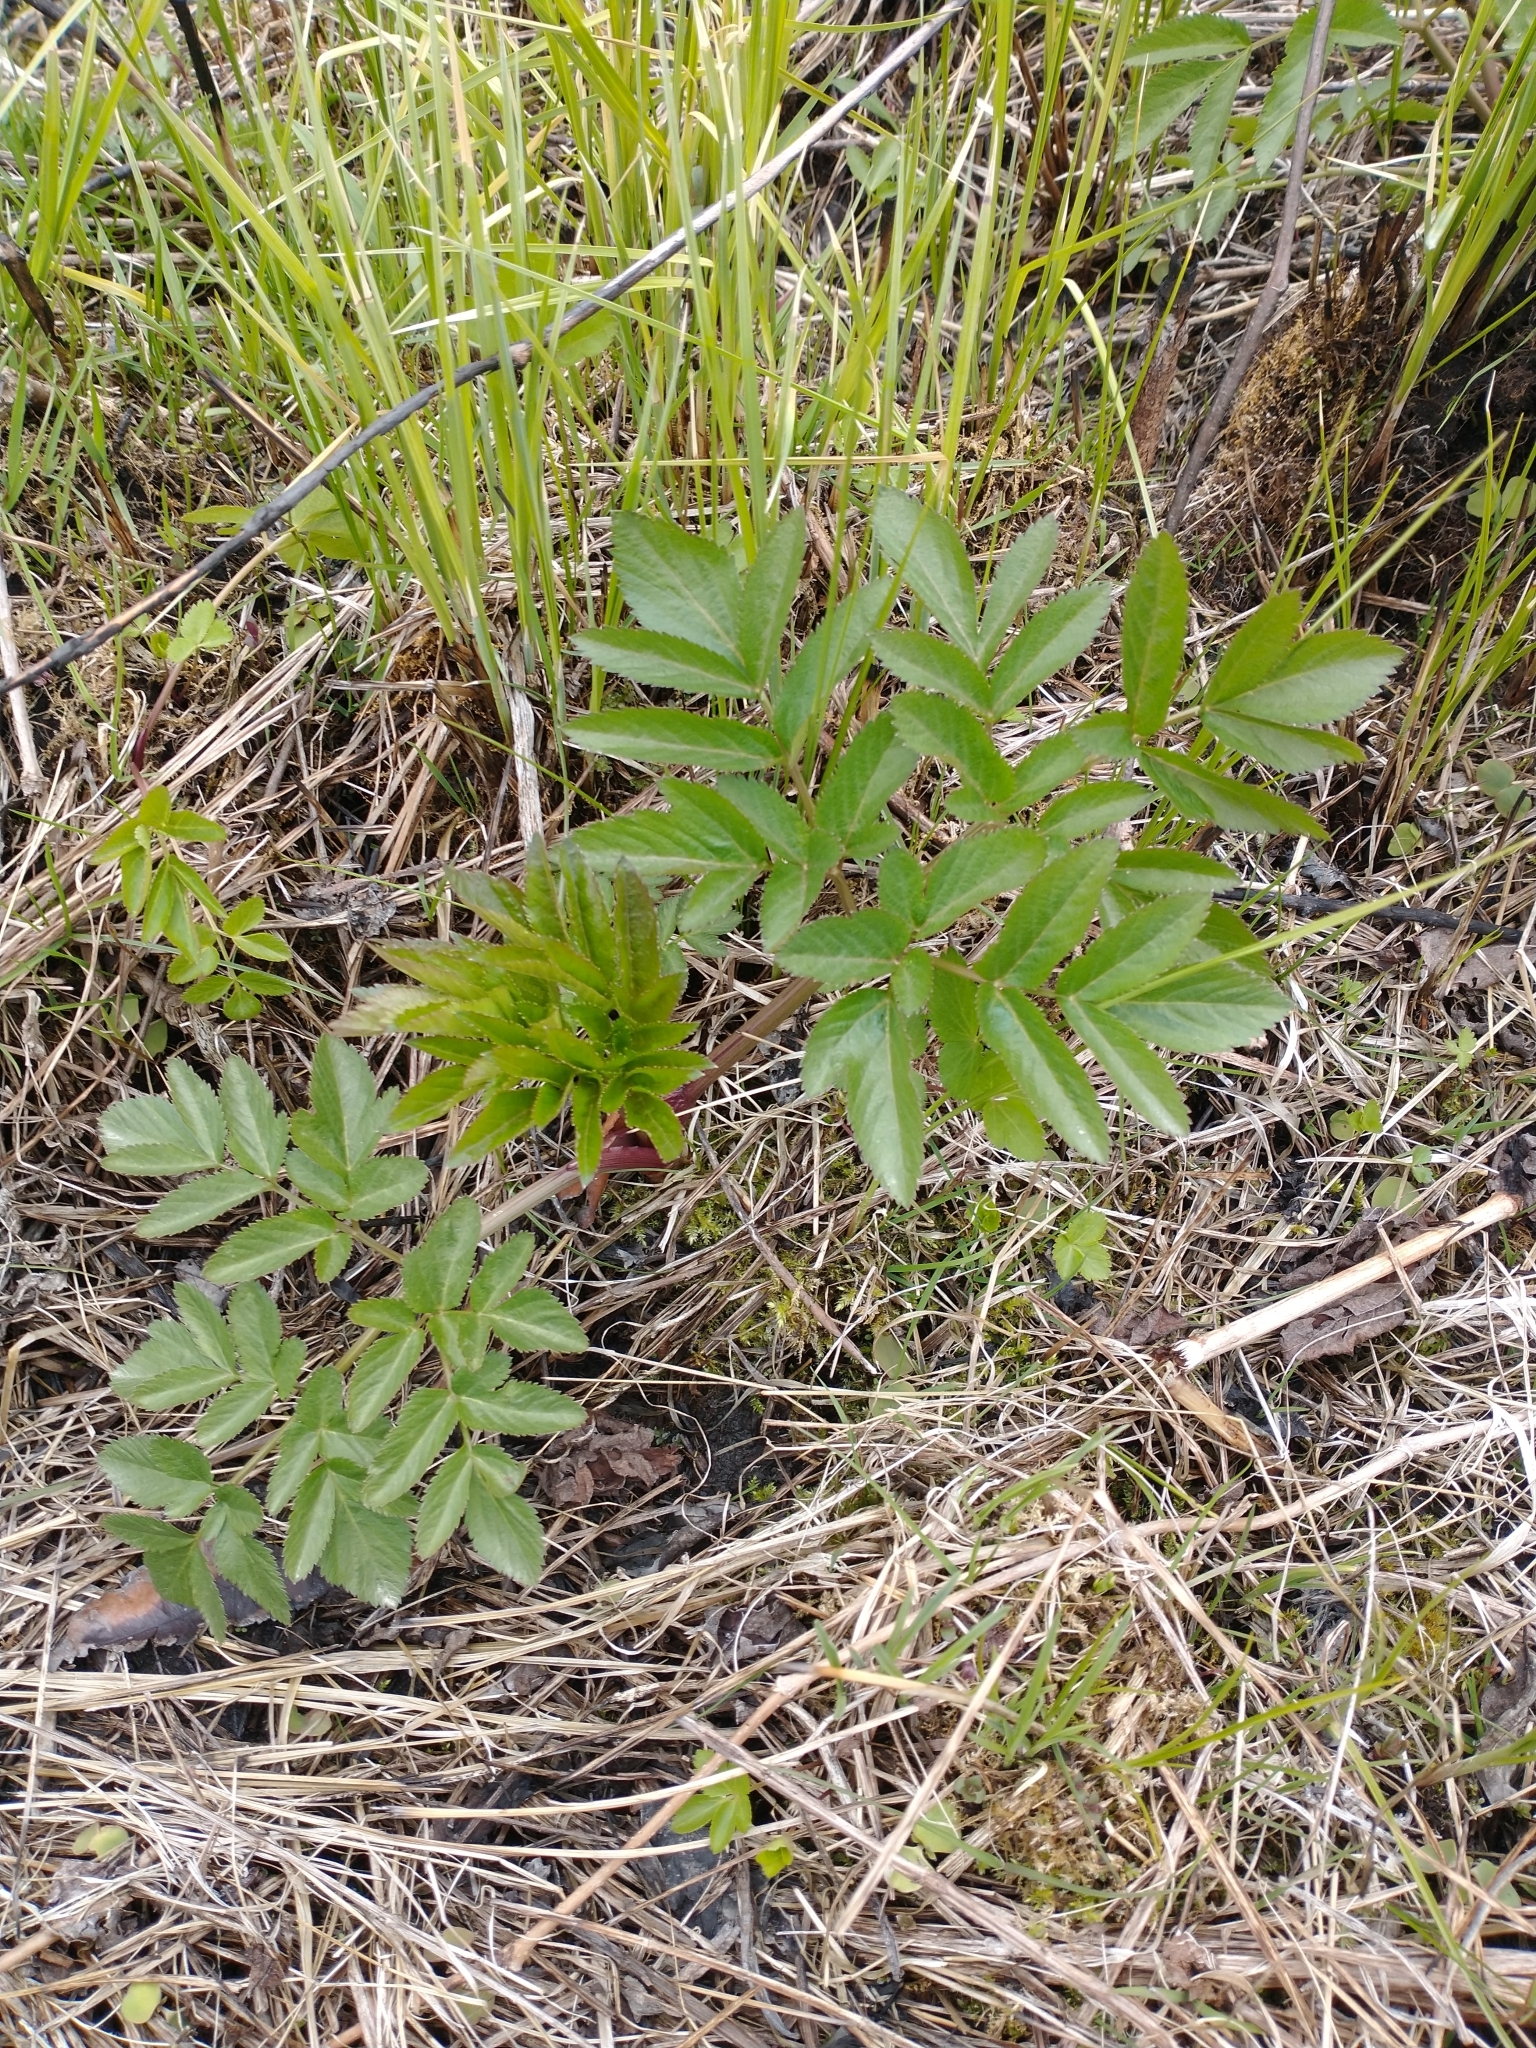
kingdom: Plantae
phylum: Tracheophyta
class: Magnoliopsida
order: Apiales
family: Apiaceae
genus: Angelica
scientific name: Angelica atropurpurea
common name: Great angelica
